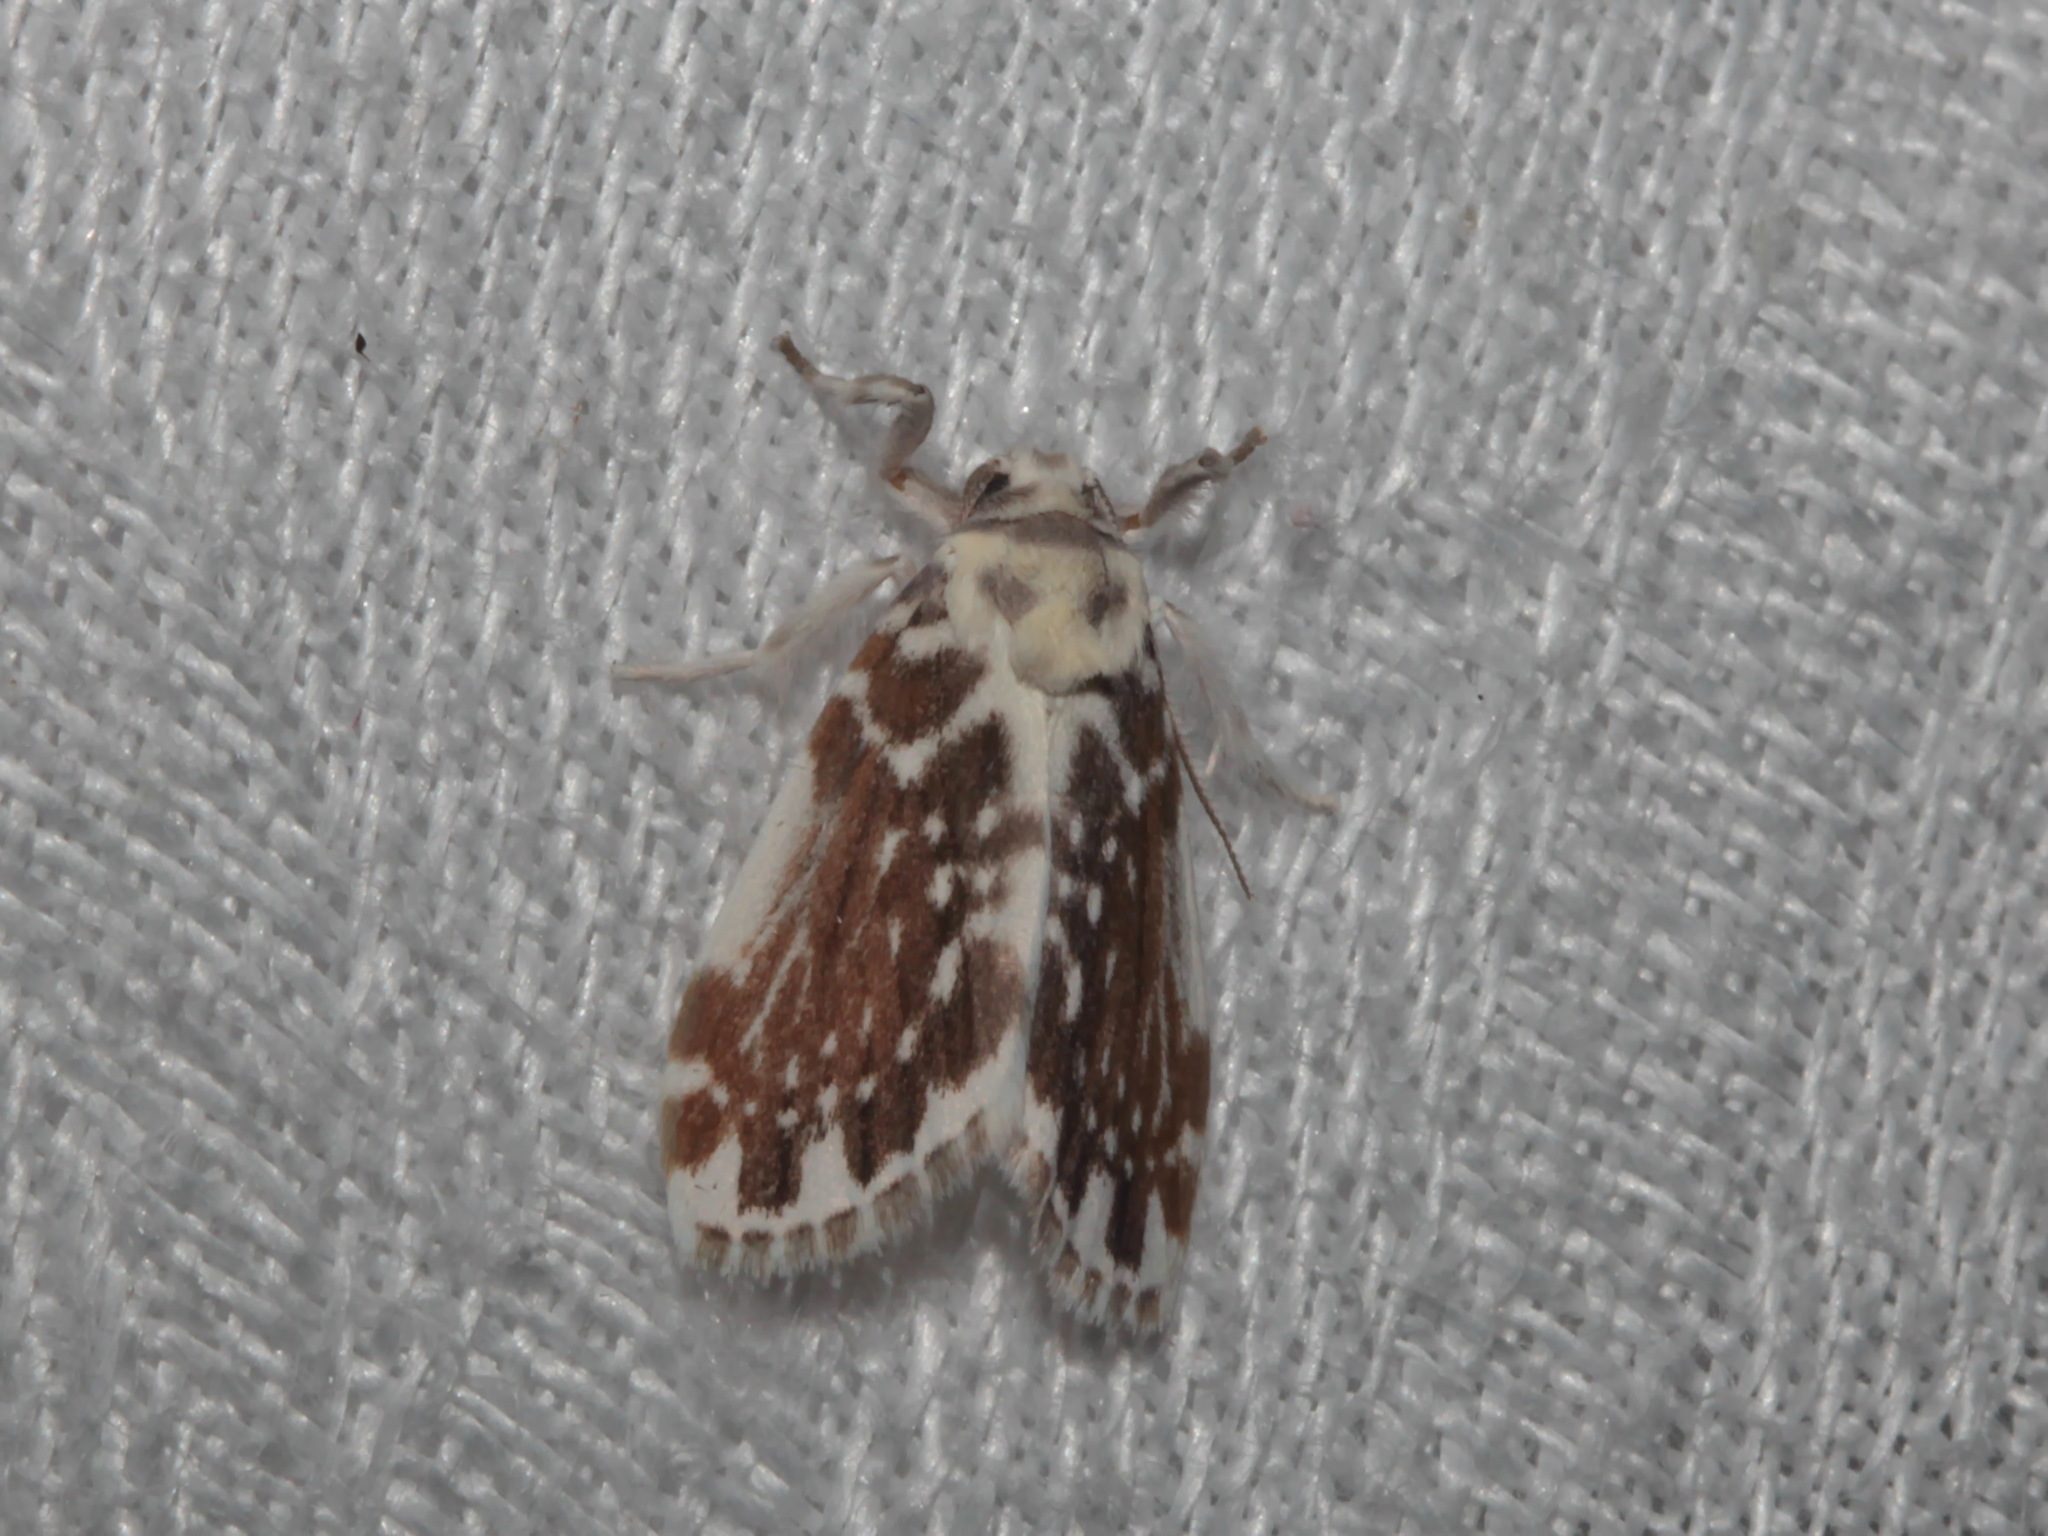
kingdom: Animalia
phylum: Arthropoda
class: Insecta
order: Lepidoptera
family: Erebidae
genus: Pseudoadites
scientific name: Pseudoadites frigida
